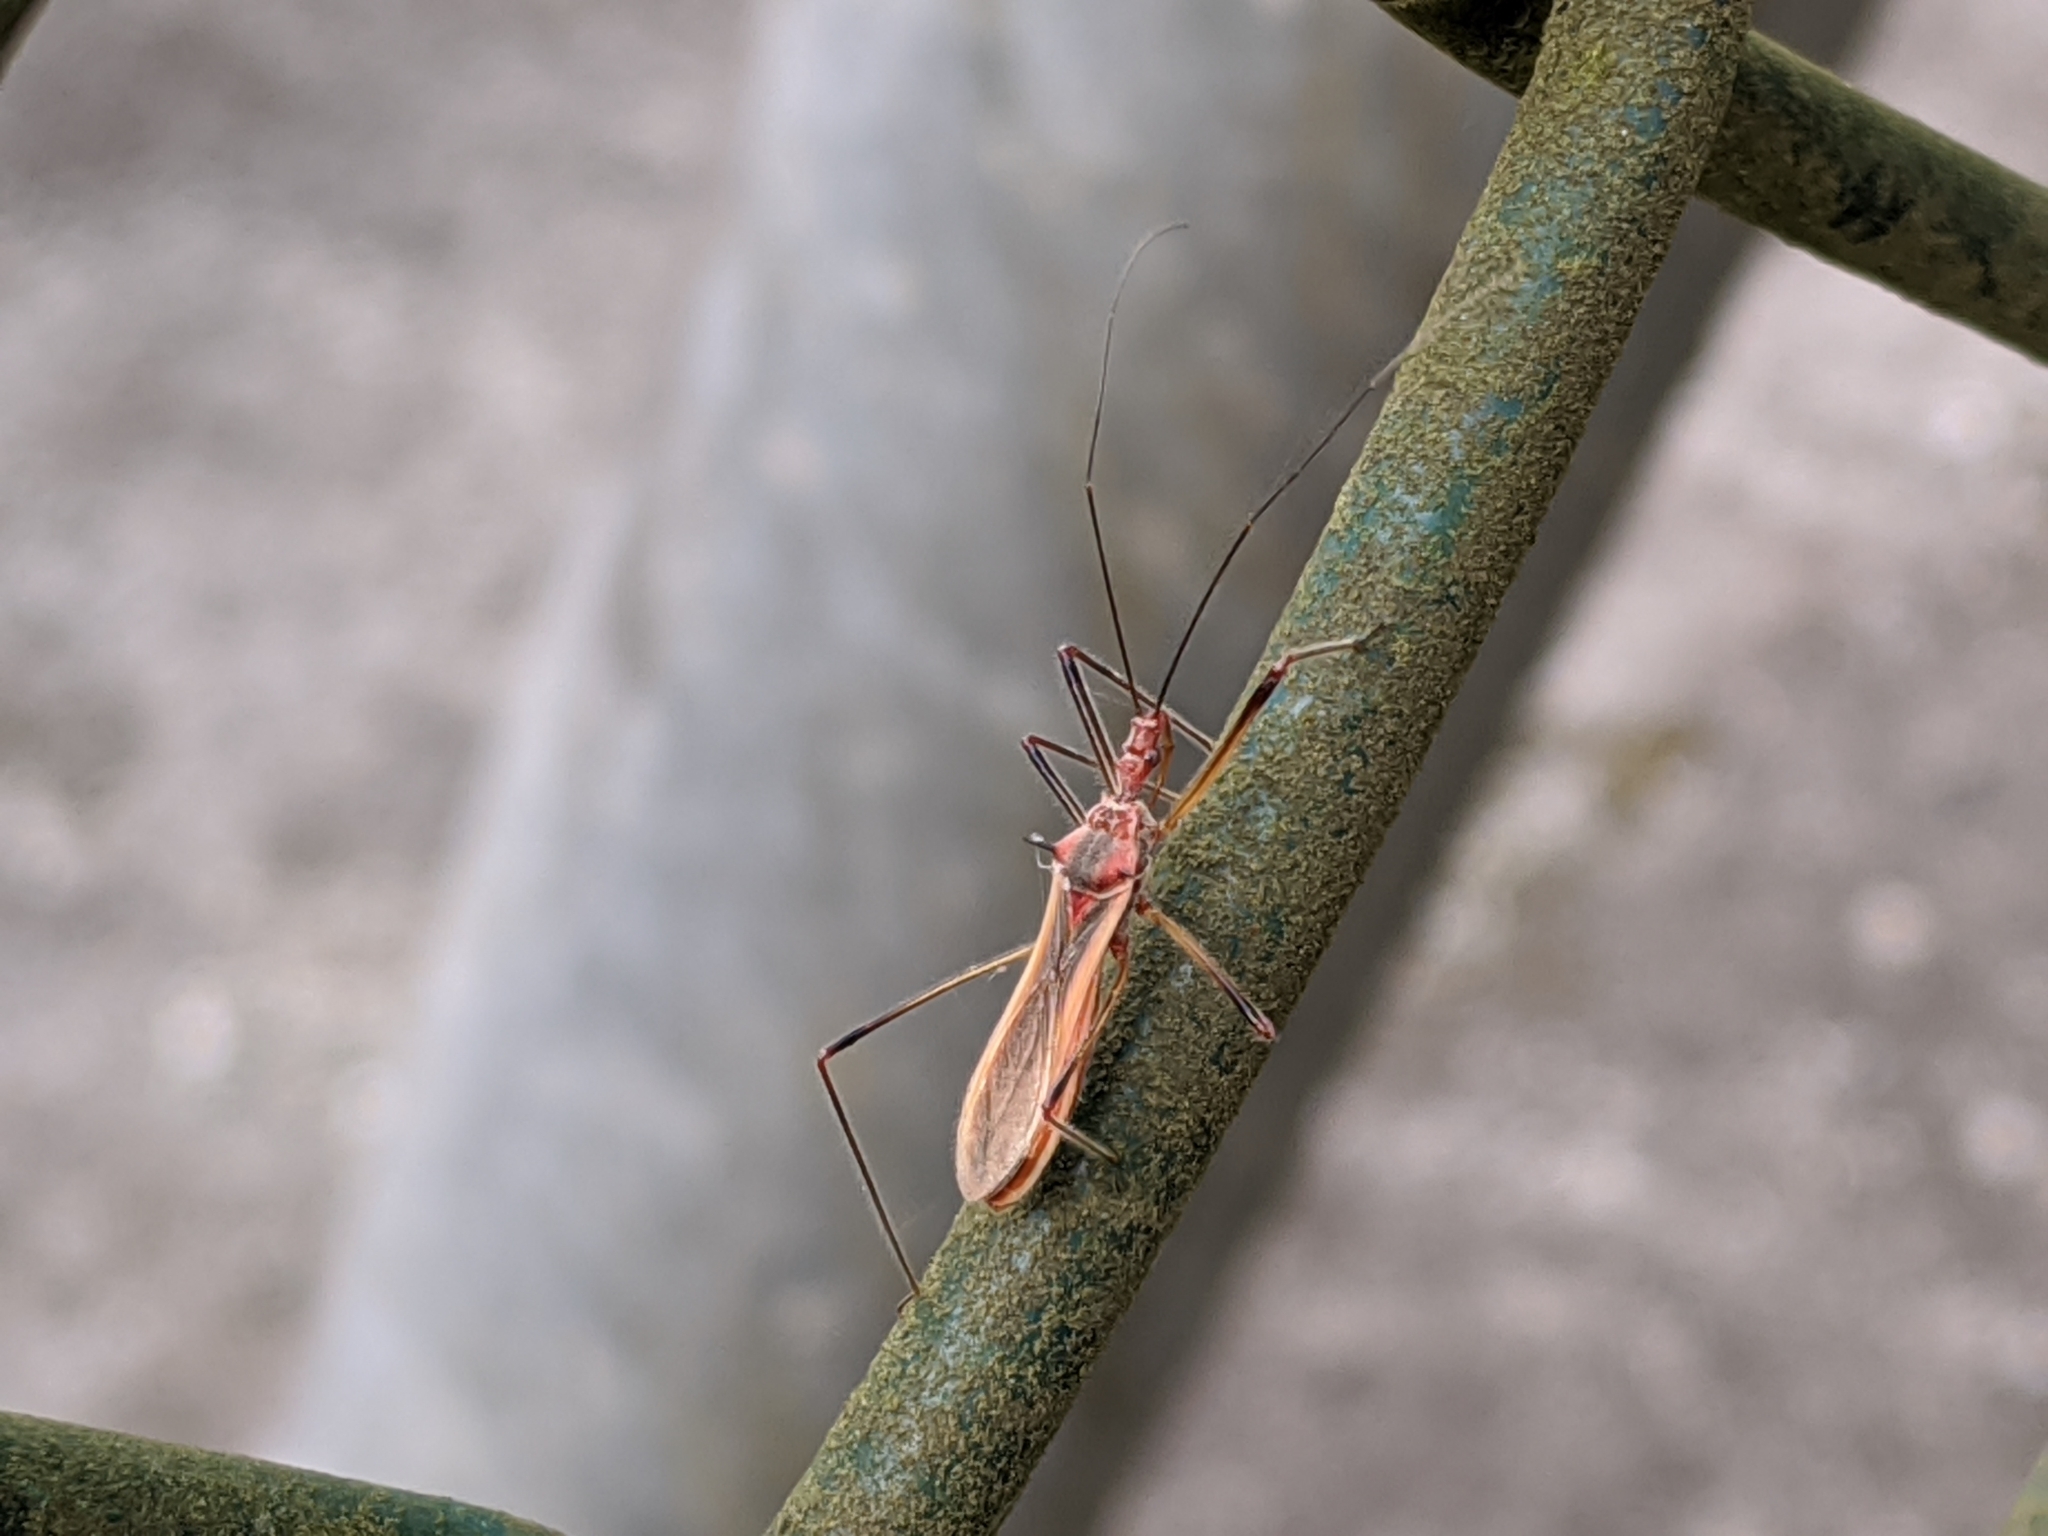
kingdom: Animalia
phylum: Arthropoda
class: Insecta
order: Hemiptera
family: Reduviidae
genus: Euagoras
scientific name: Euagoras plagiatus
